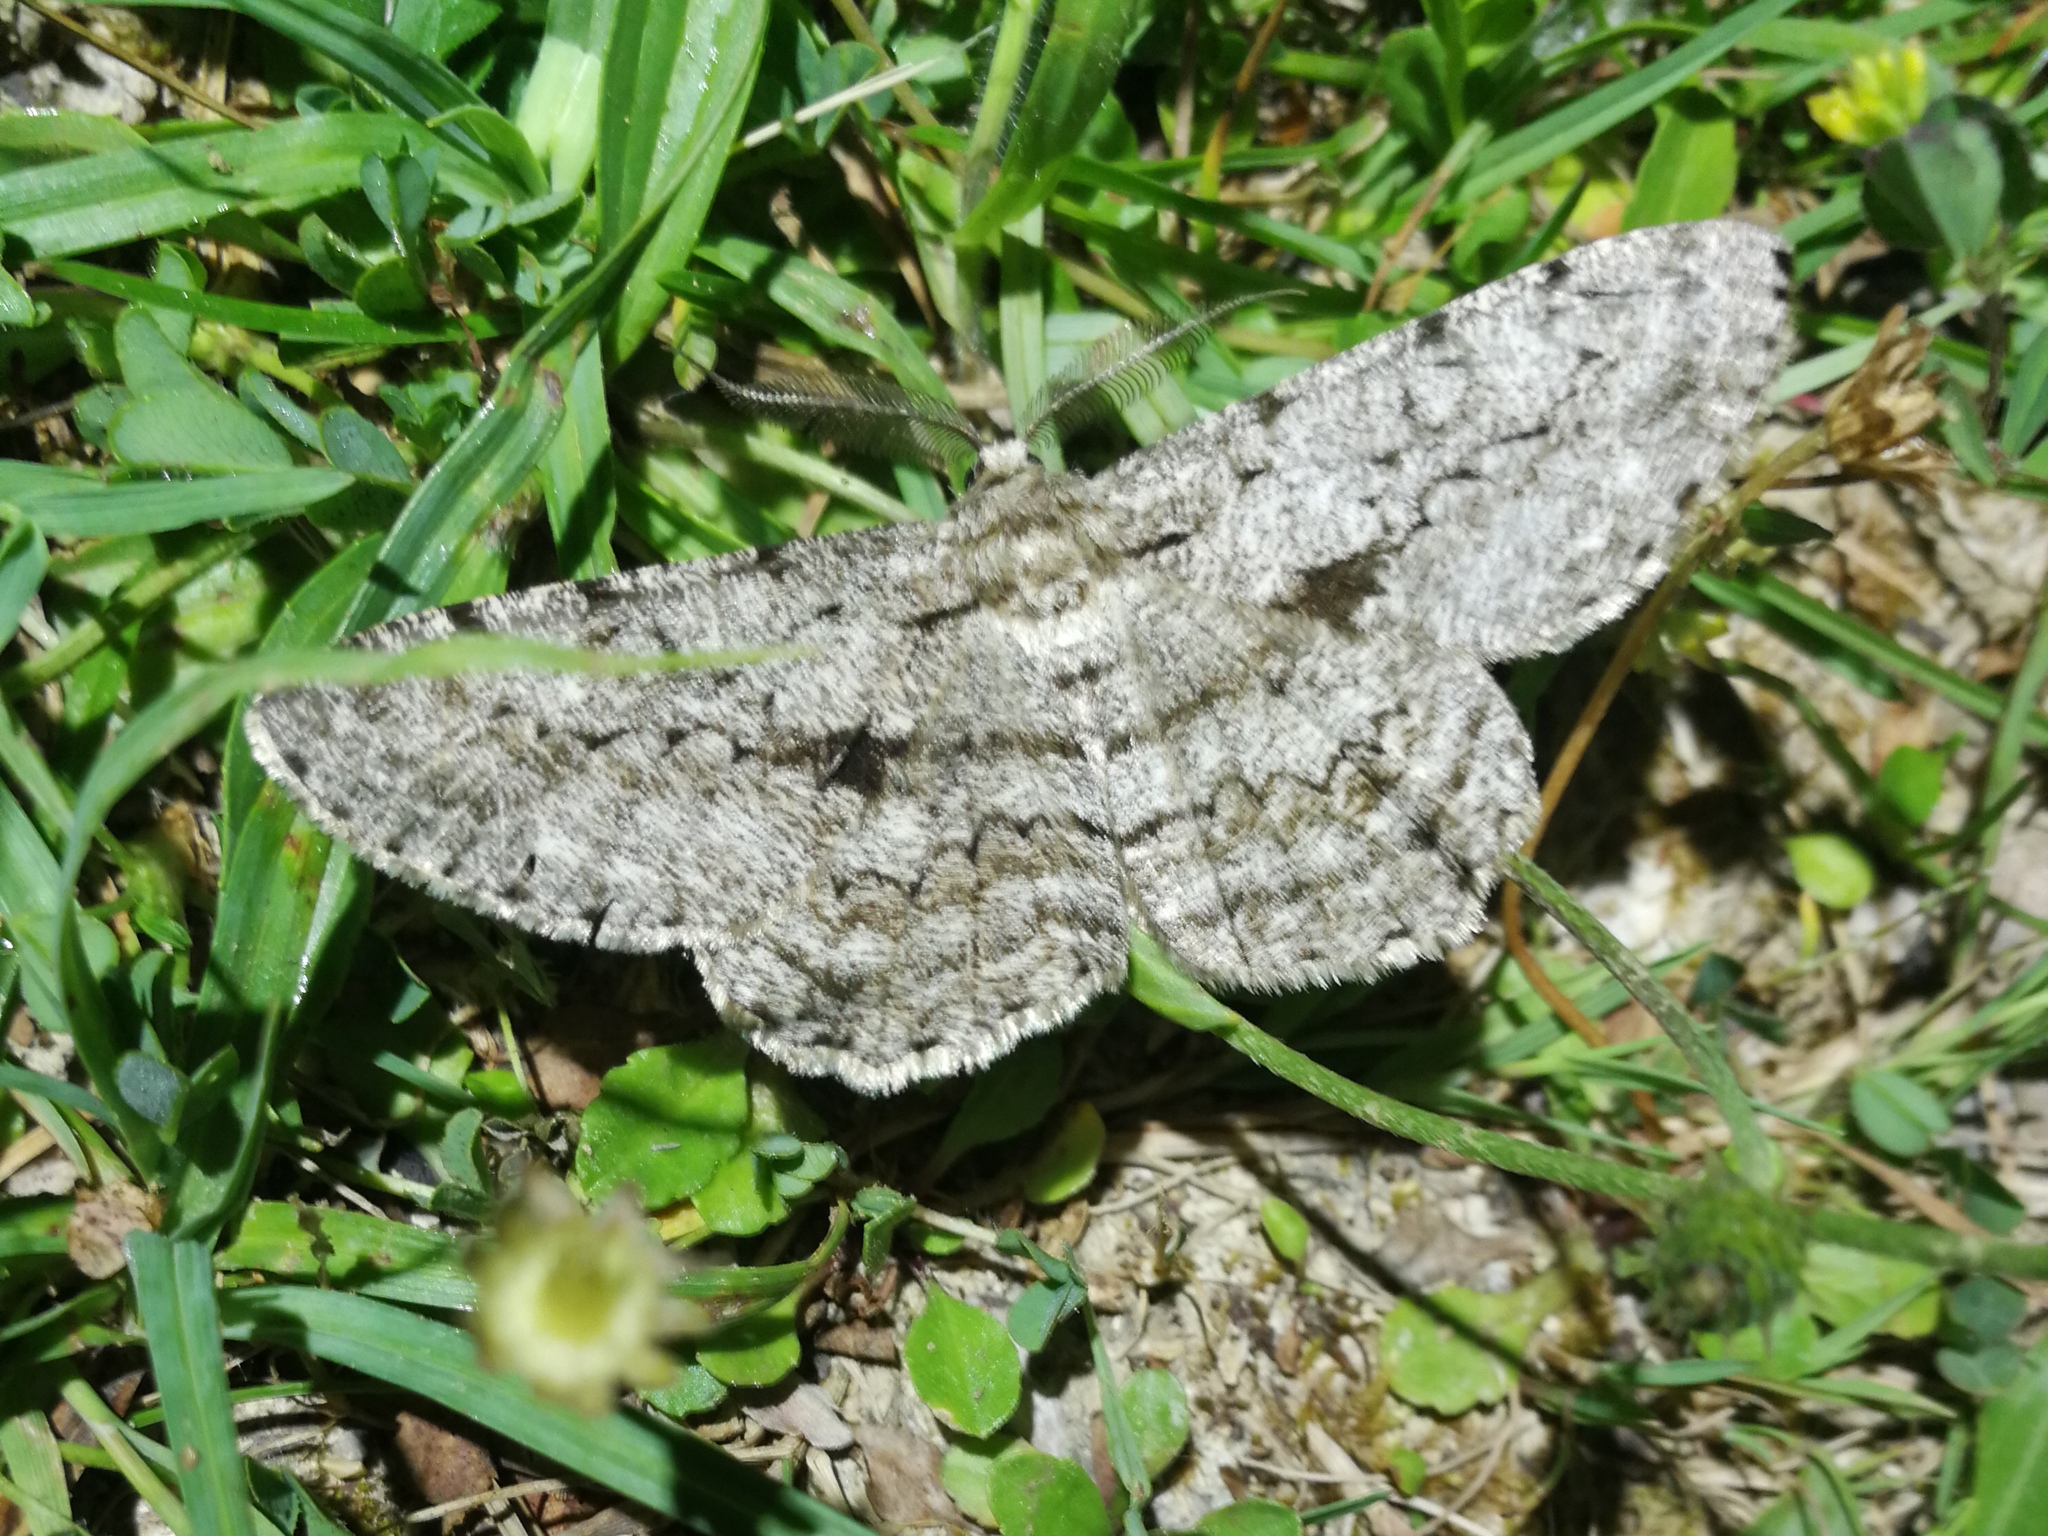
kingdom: Animalia
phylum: Arthropoda
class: Insecta
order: Lepidoptera
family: Geometridae
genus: Hypomecis
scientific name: Hypomecis roboraria
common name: Great oak beauty
